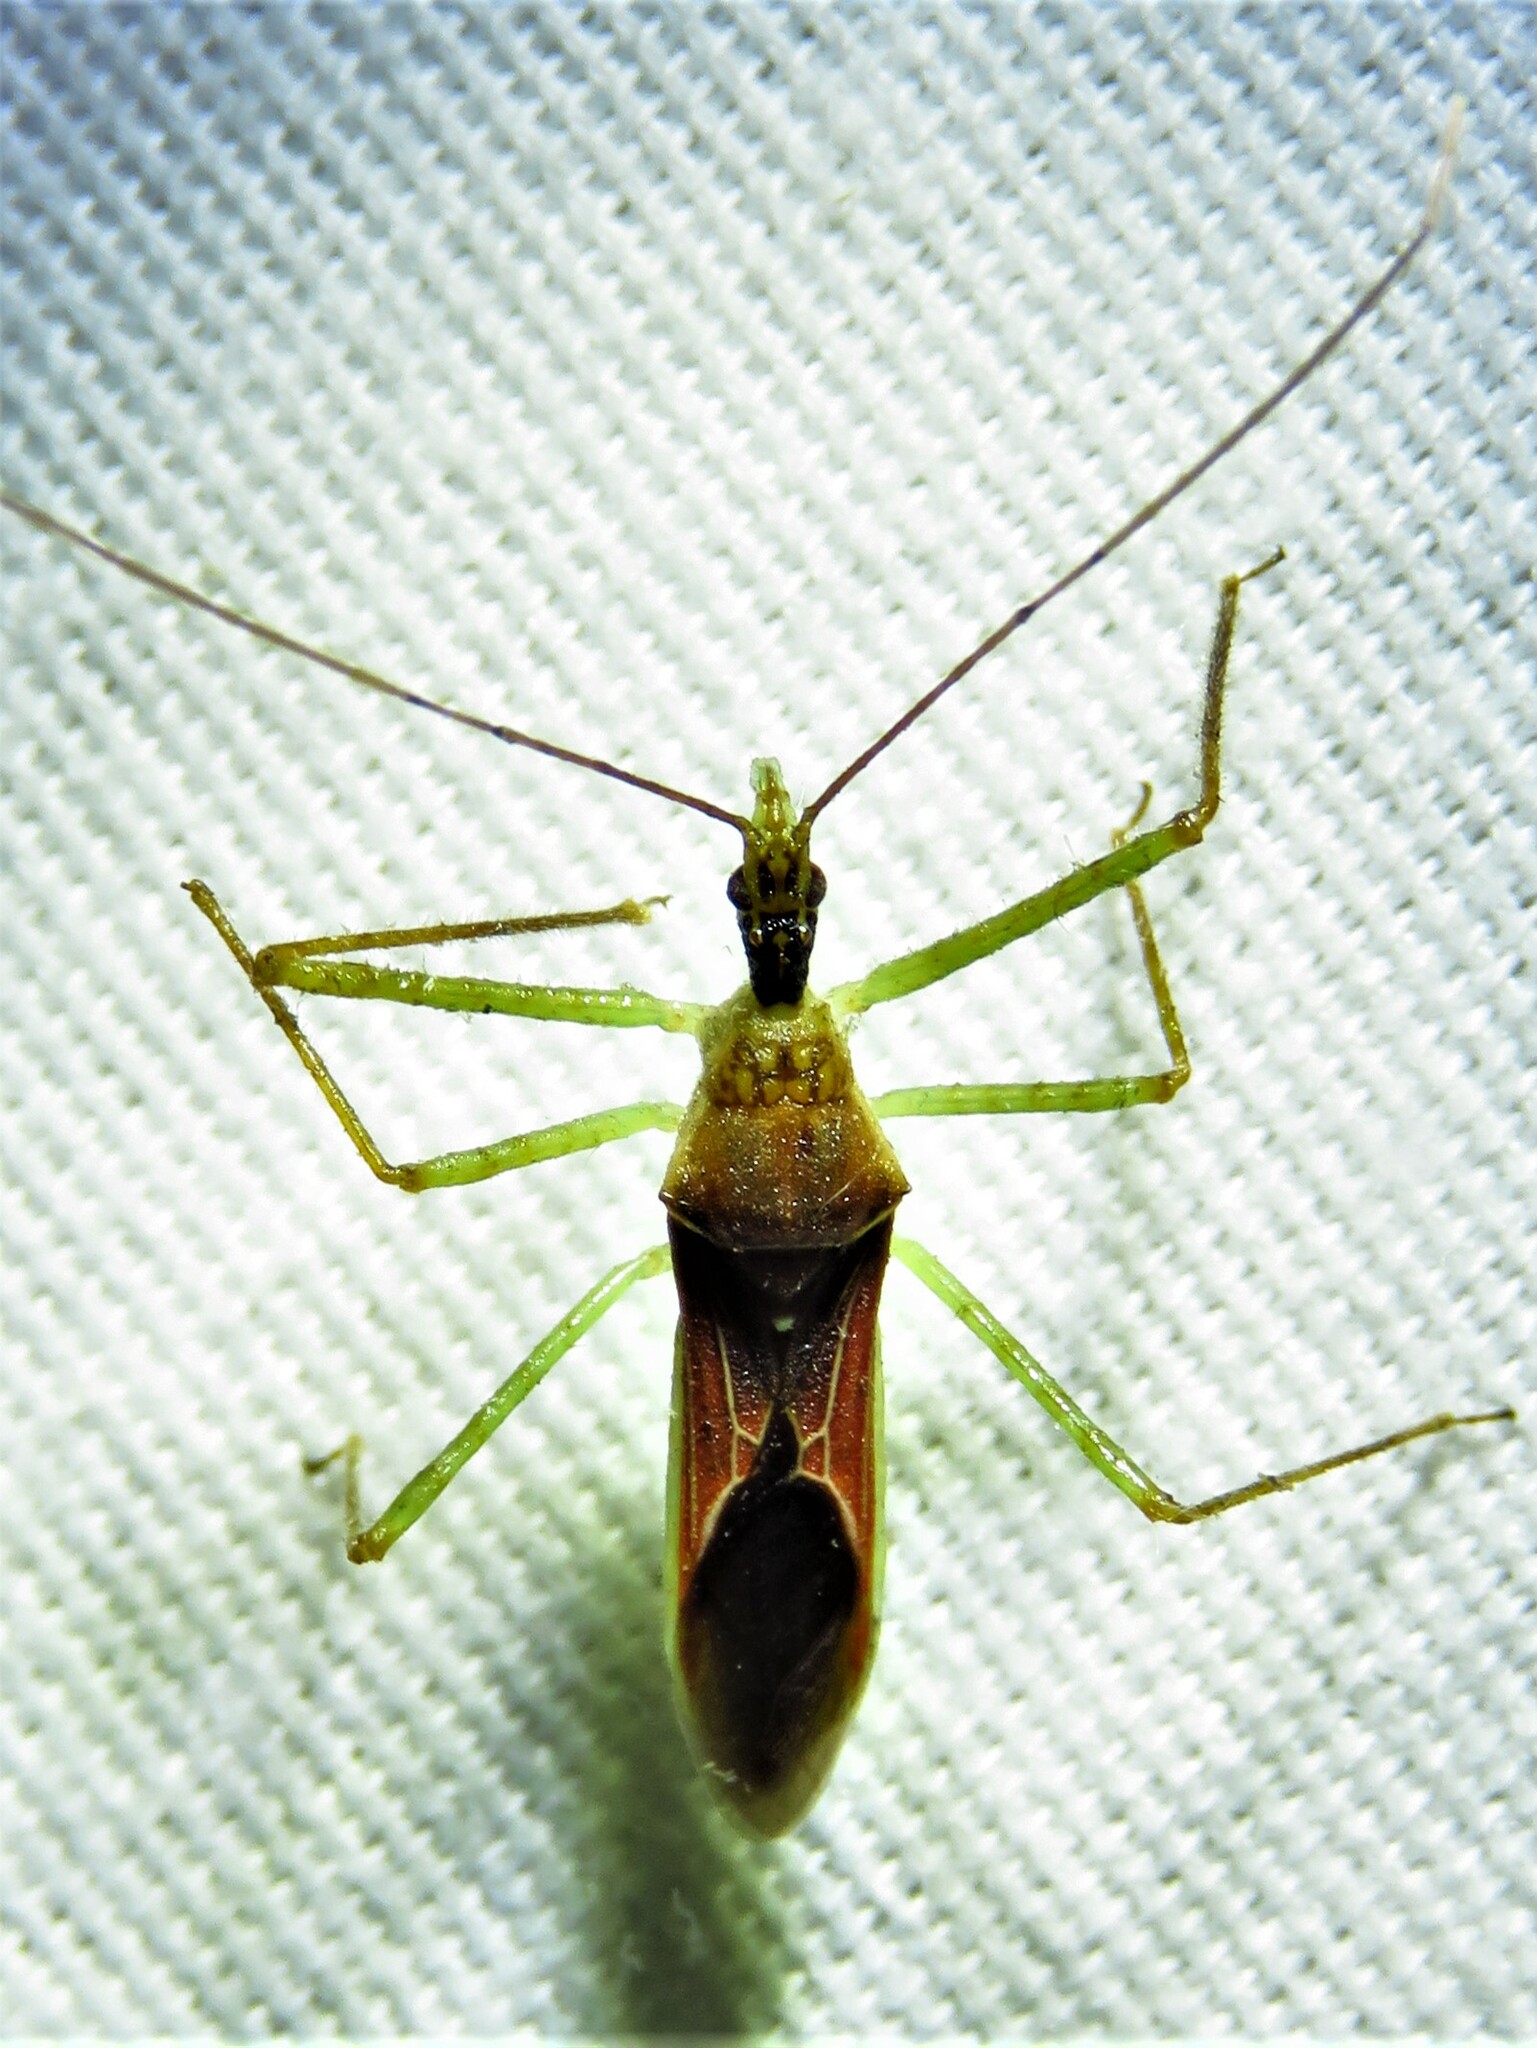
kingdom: Animalia
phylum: Arthropoda
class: Insecta
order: Hemiptera
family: Reduviidae
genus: Zelus
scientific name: Zelus renardii
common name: Assassin bug
